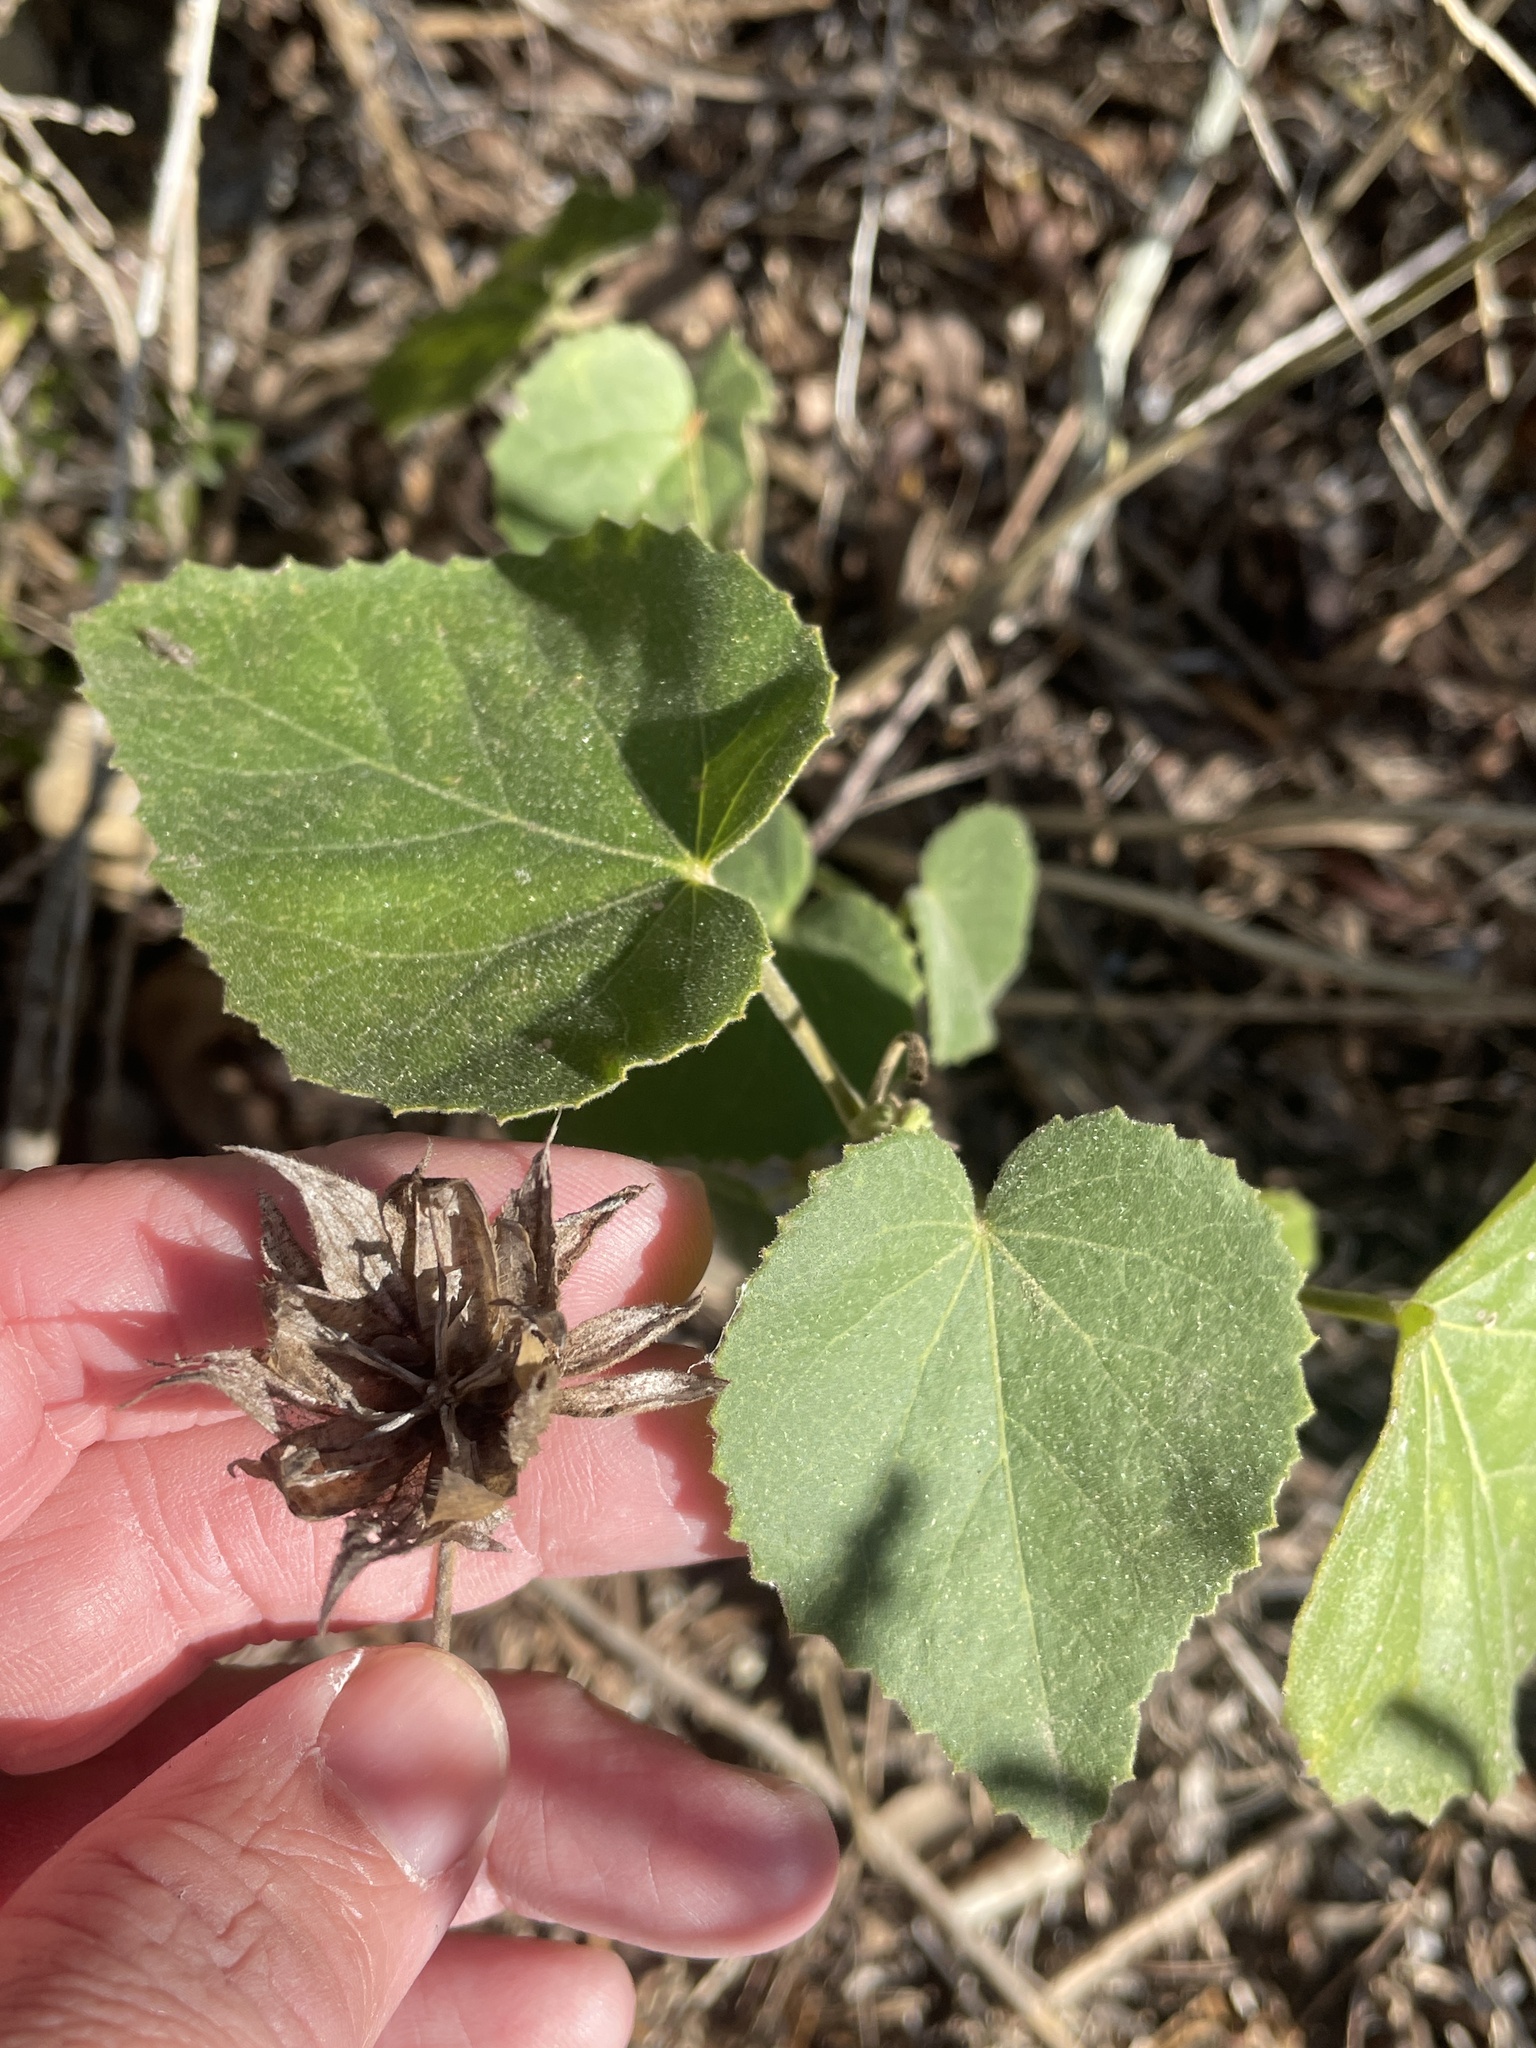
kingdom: Plantae
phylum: Tracheophyta
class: Magnoliopsida
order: Malvales
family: Malvaceae
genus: Hibiscus
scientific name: Hibiscus martianus
